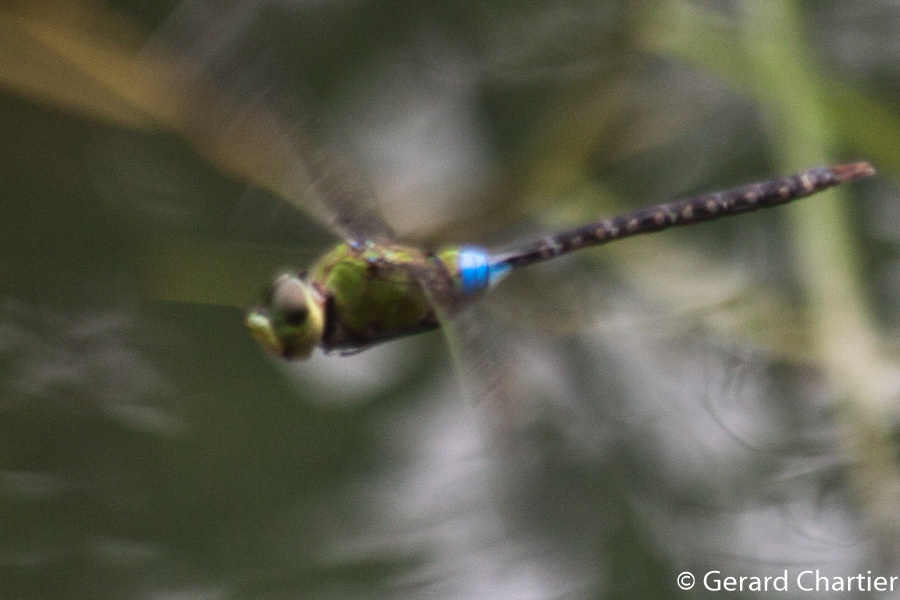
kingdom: Animalia
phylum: Arthropoda
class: Insecta
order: Odonata
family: Aeshnidae
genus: Anax
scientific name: Anax guttatus
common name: Emperor
